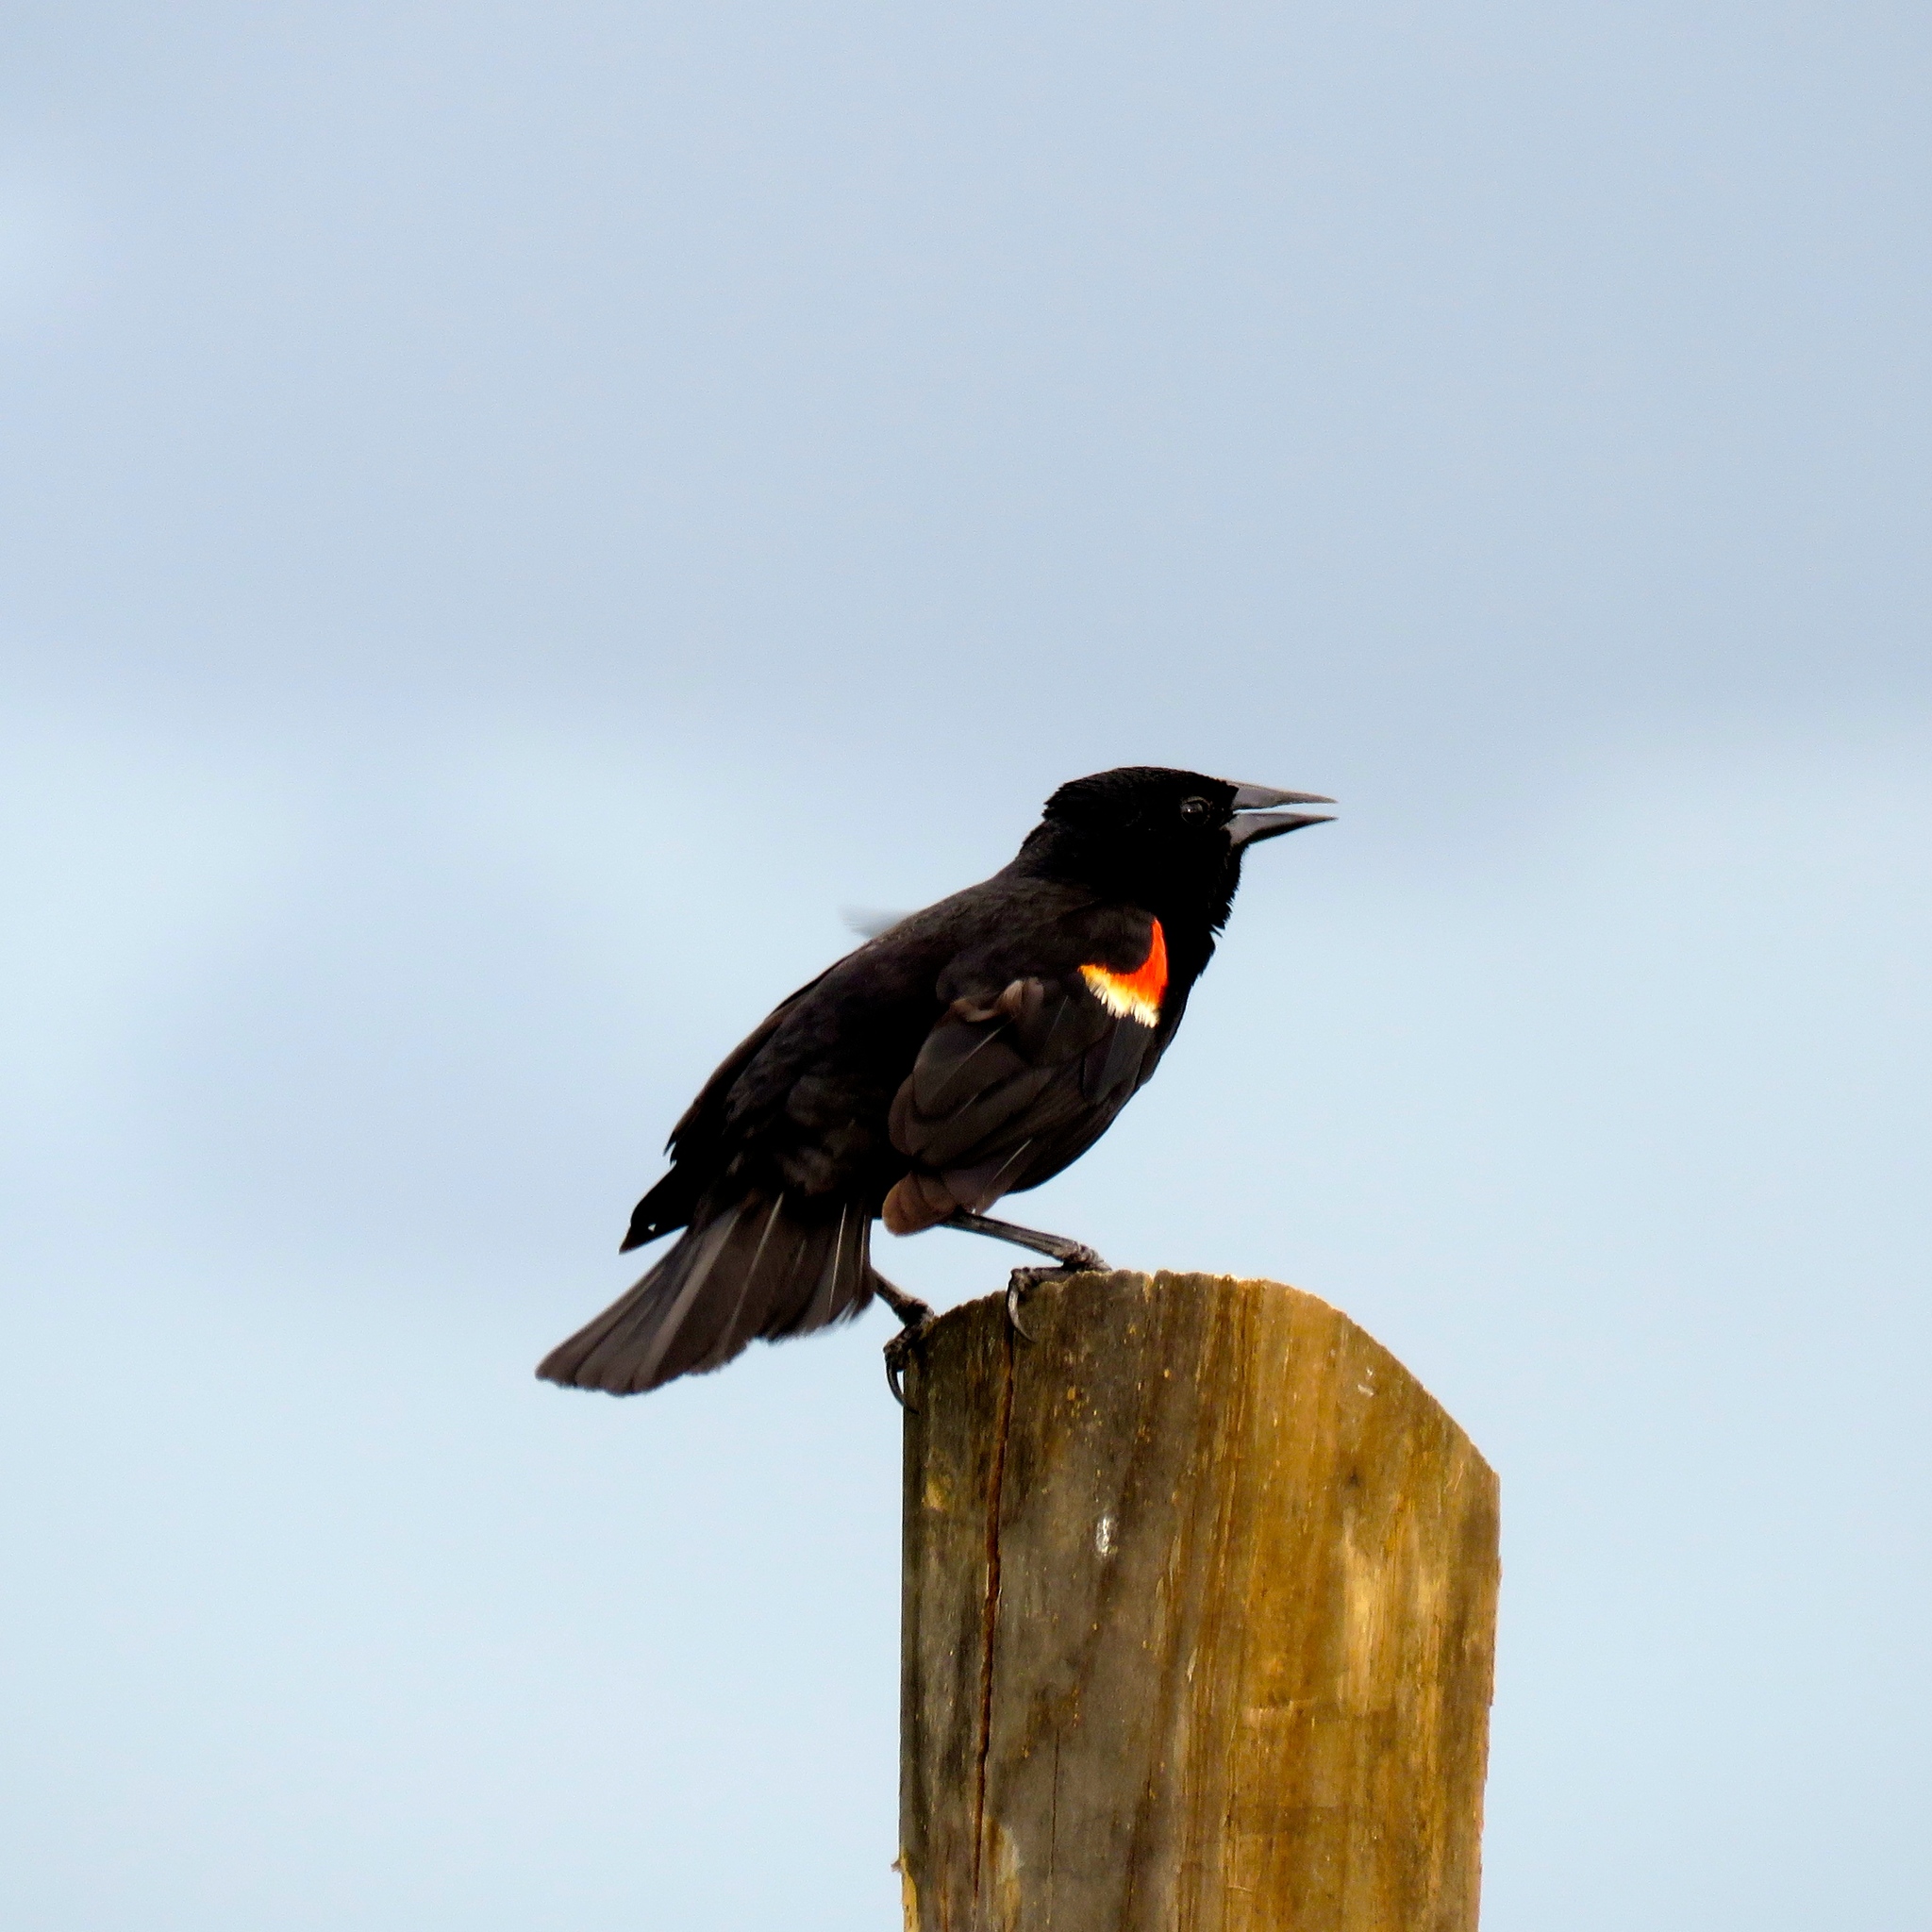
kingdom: Animalia
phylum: Chordata
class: Aves
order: Passeriformes
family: Icteridae
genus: Agelaius
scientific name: Agelaius phoeniceus
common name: Red-winged blackbird
